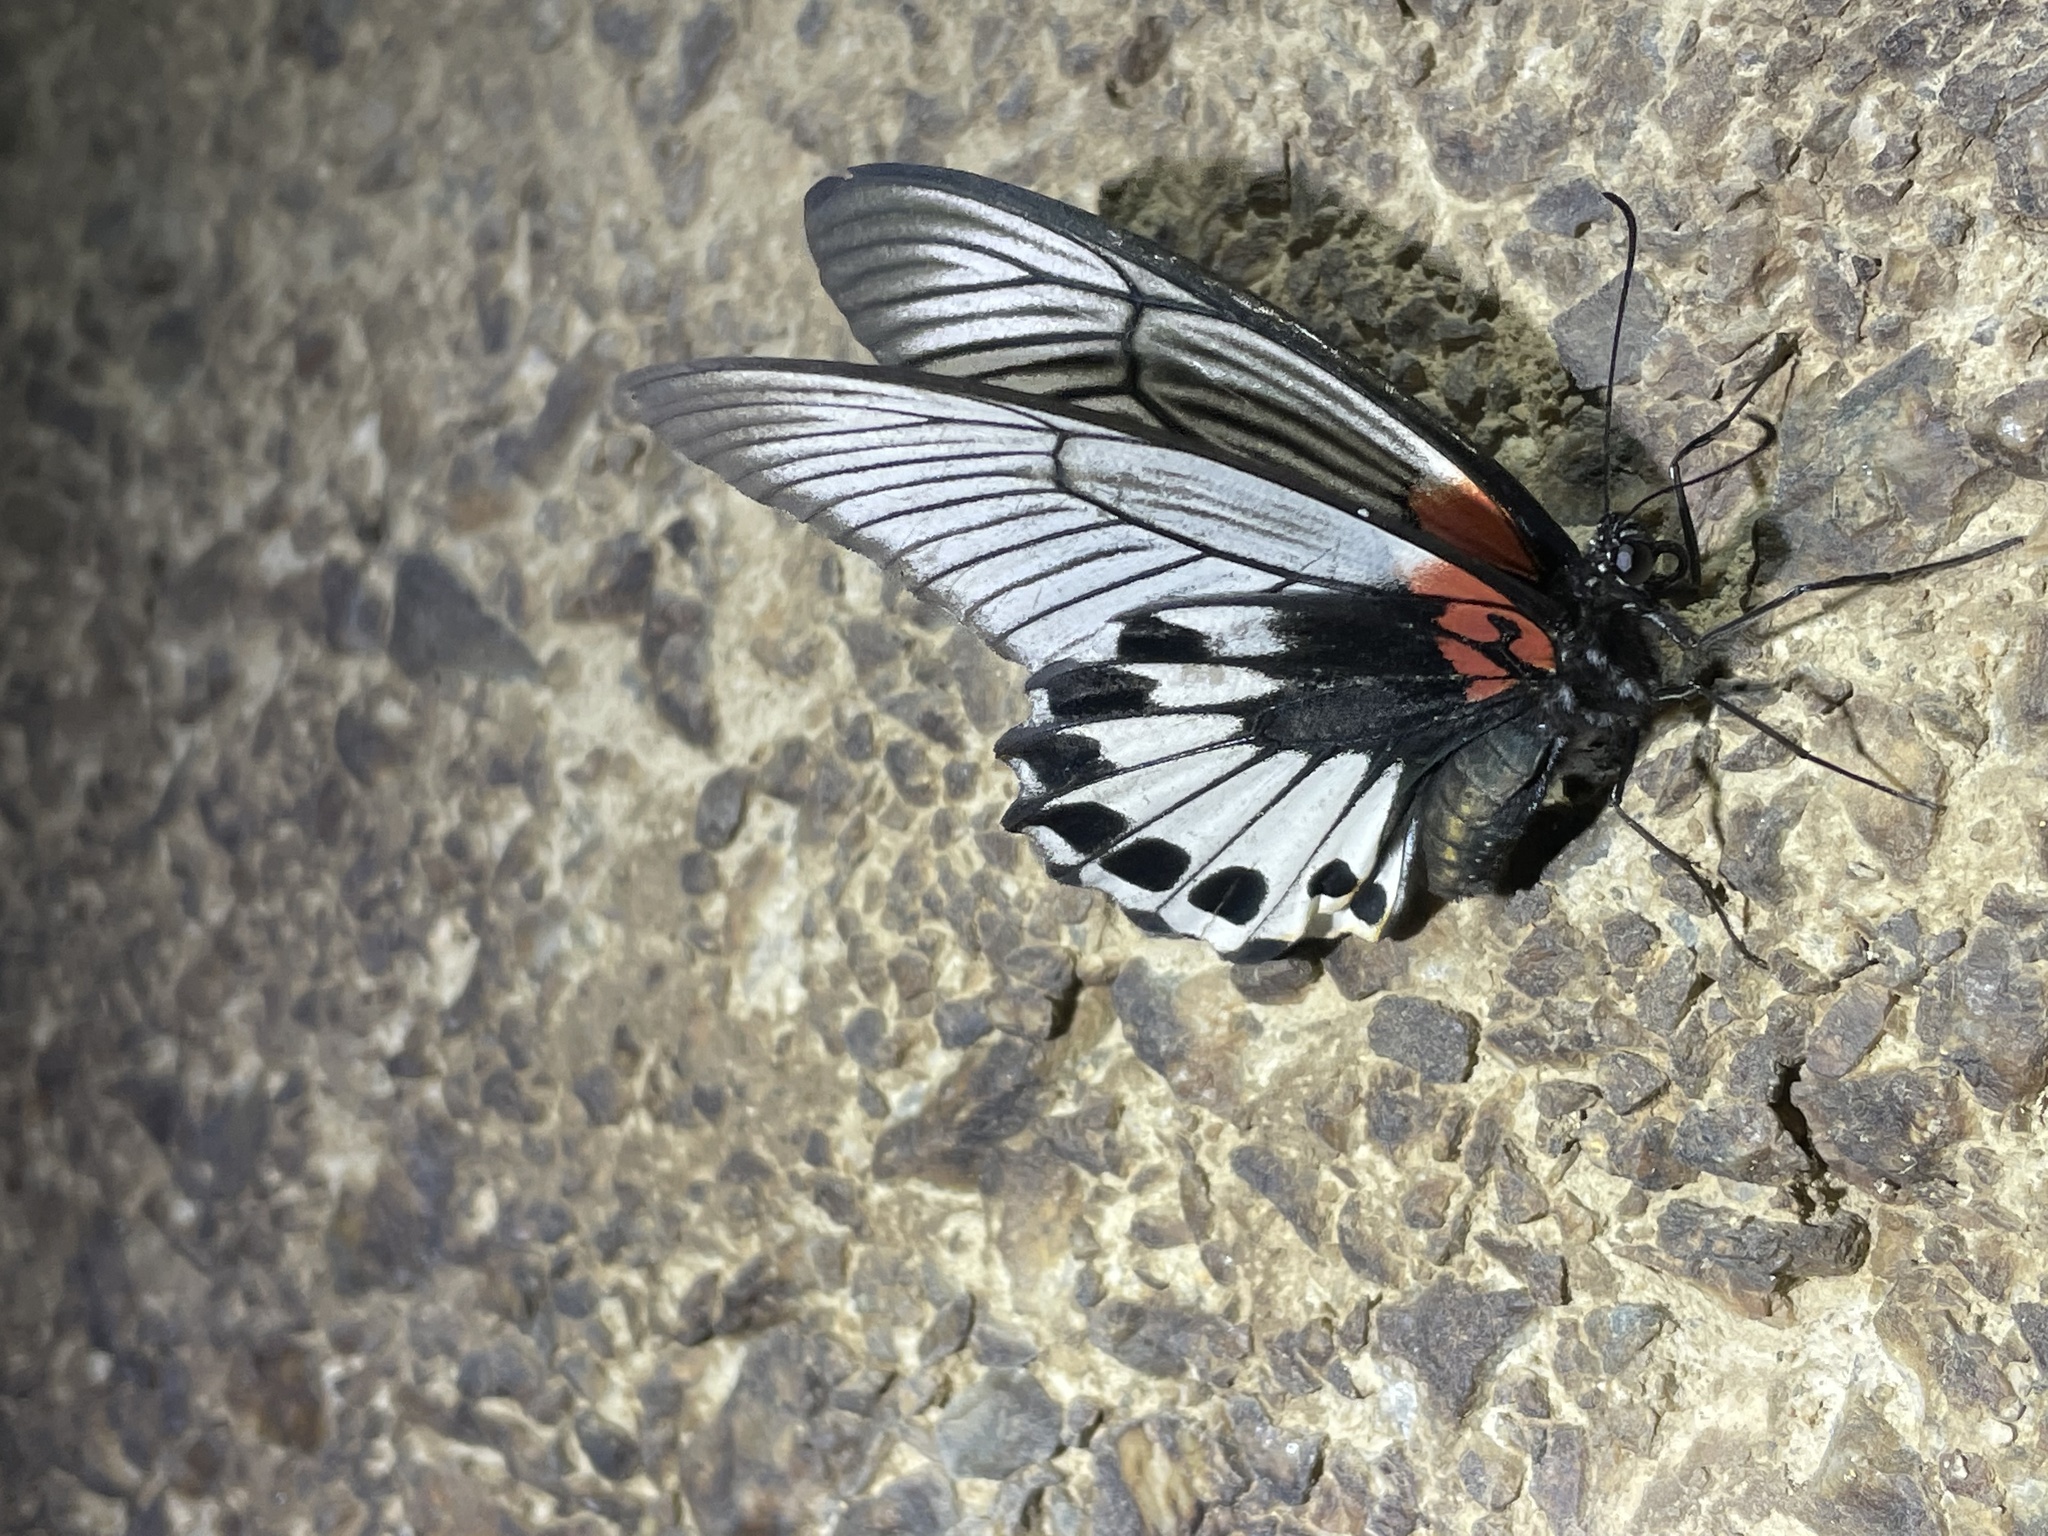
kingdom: Animalia
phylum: Arthropoda
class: Insecta
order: Lepidoptera
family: Papilionidae
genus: Papilio
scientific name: Papilio memnon
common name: Great mormon
